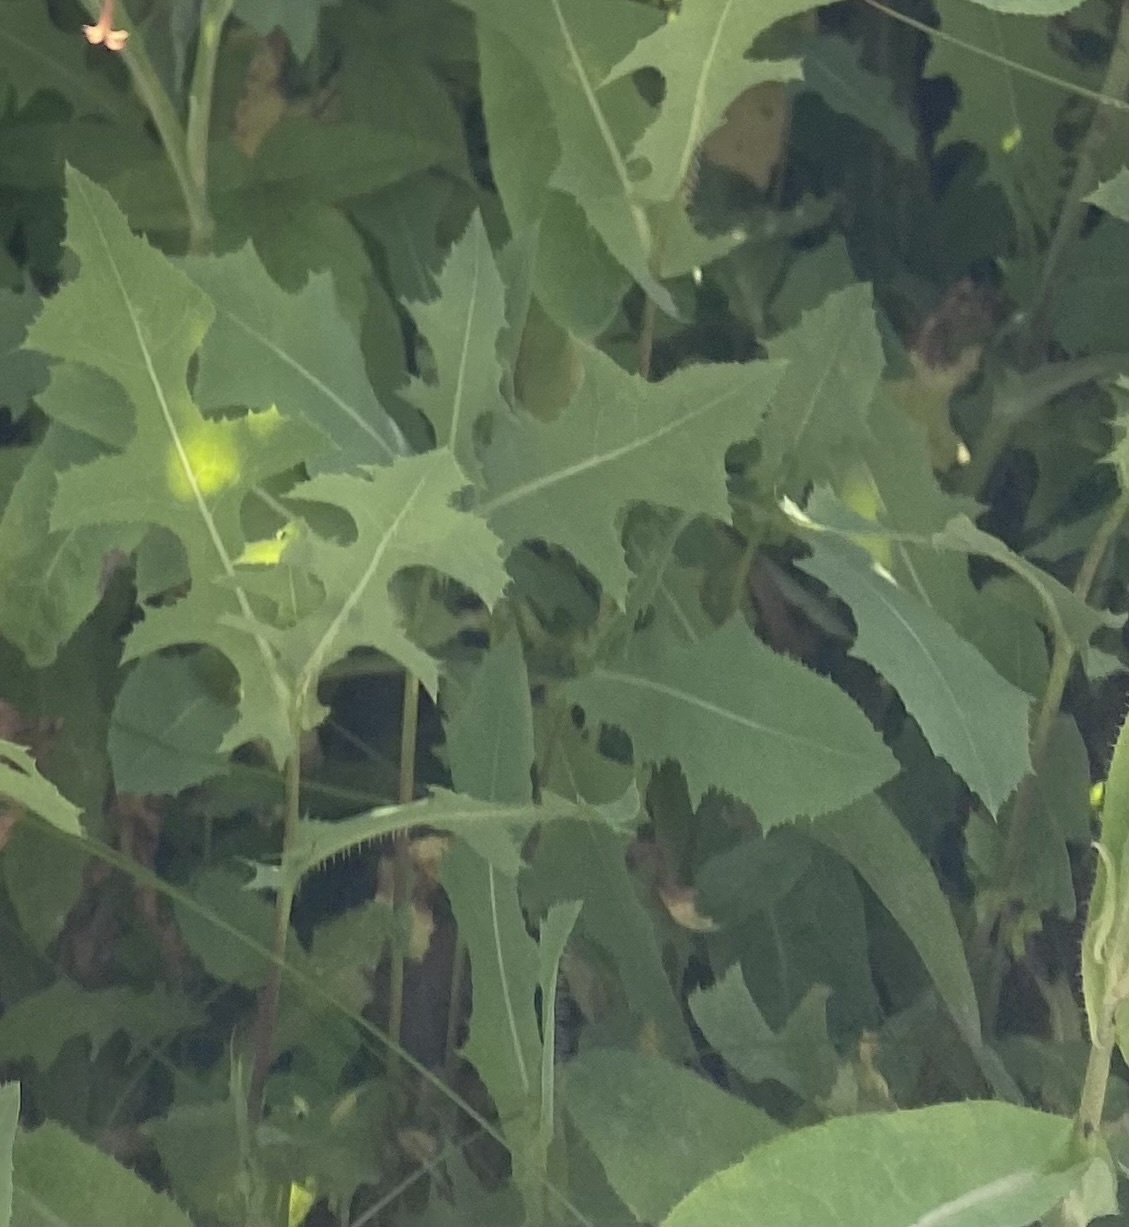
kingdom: Plantae
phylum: Tracheophyta
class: Magnoliopsida
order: Asterales
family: Asteraceae
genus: Lactuca
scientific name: Lactuca serriola
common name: Prickly lettuce
